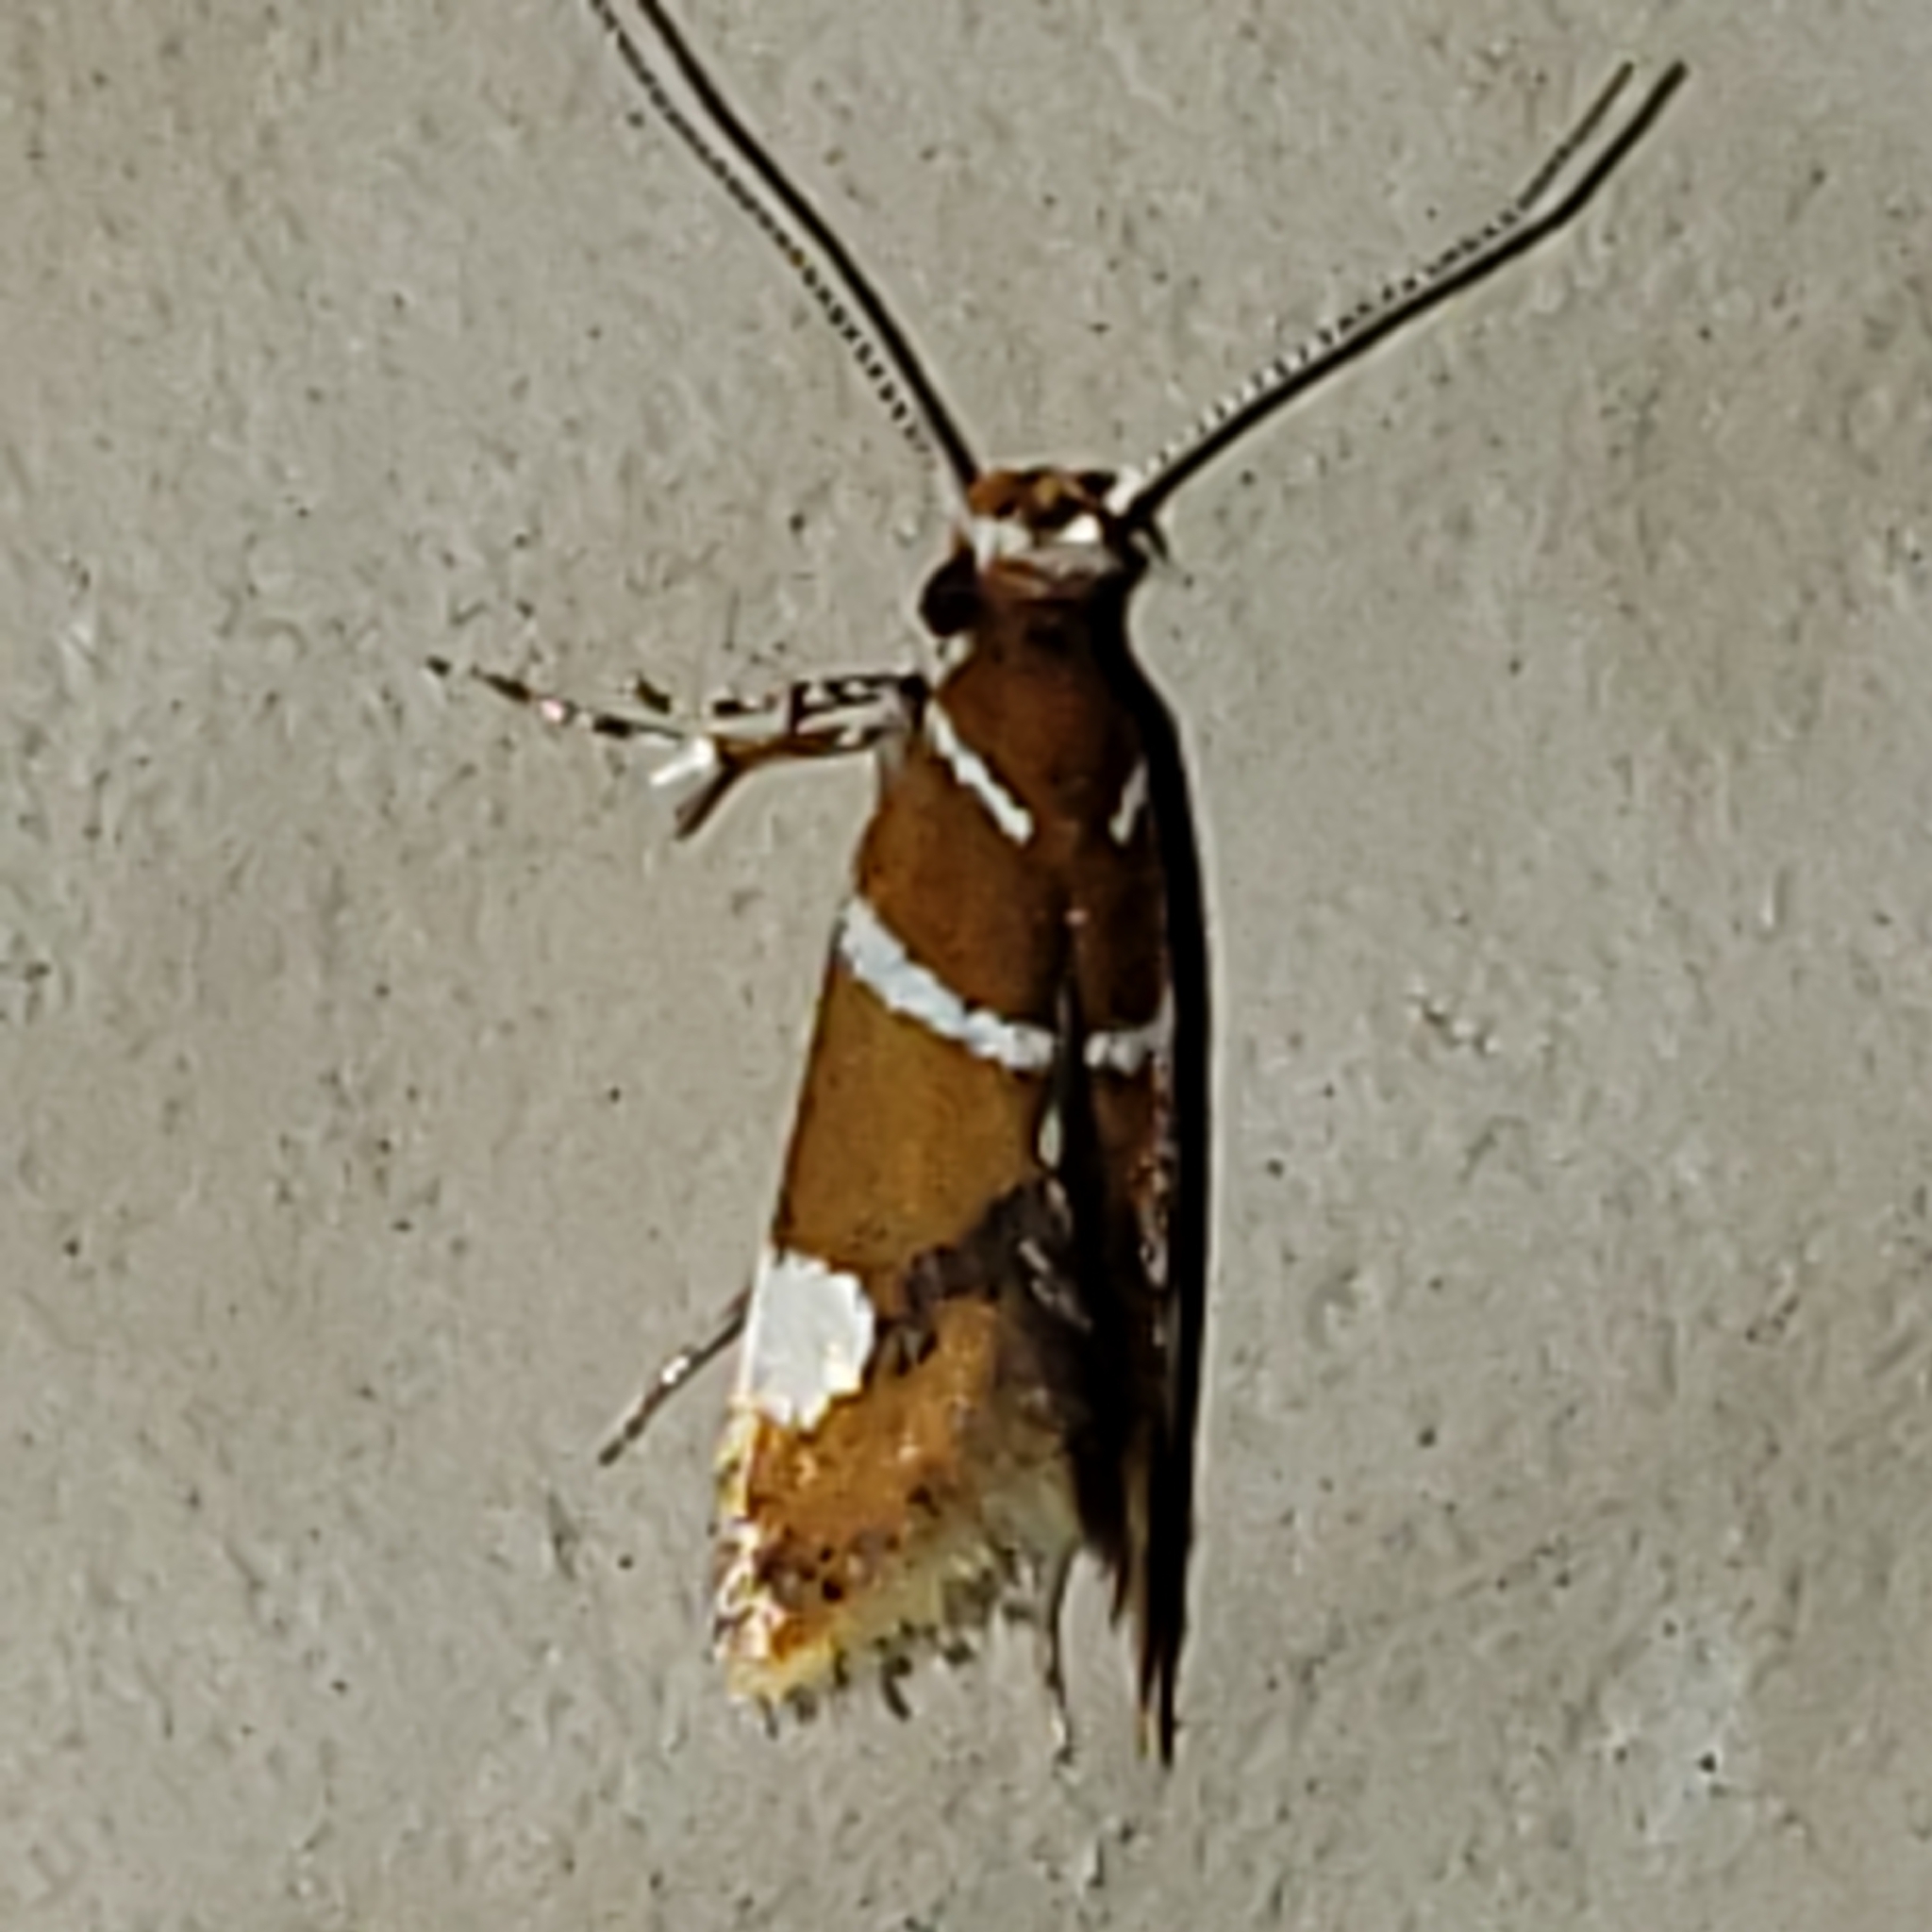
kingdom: Animalia
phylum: Arthropoda
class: Insecta
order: Lepidoptera
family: Oecophoridae
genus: Promalactis
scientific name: Promalactis suzukiella
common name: Moth
